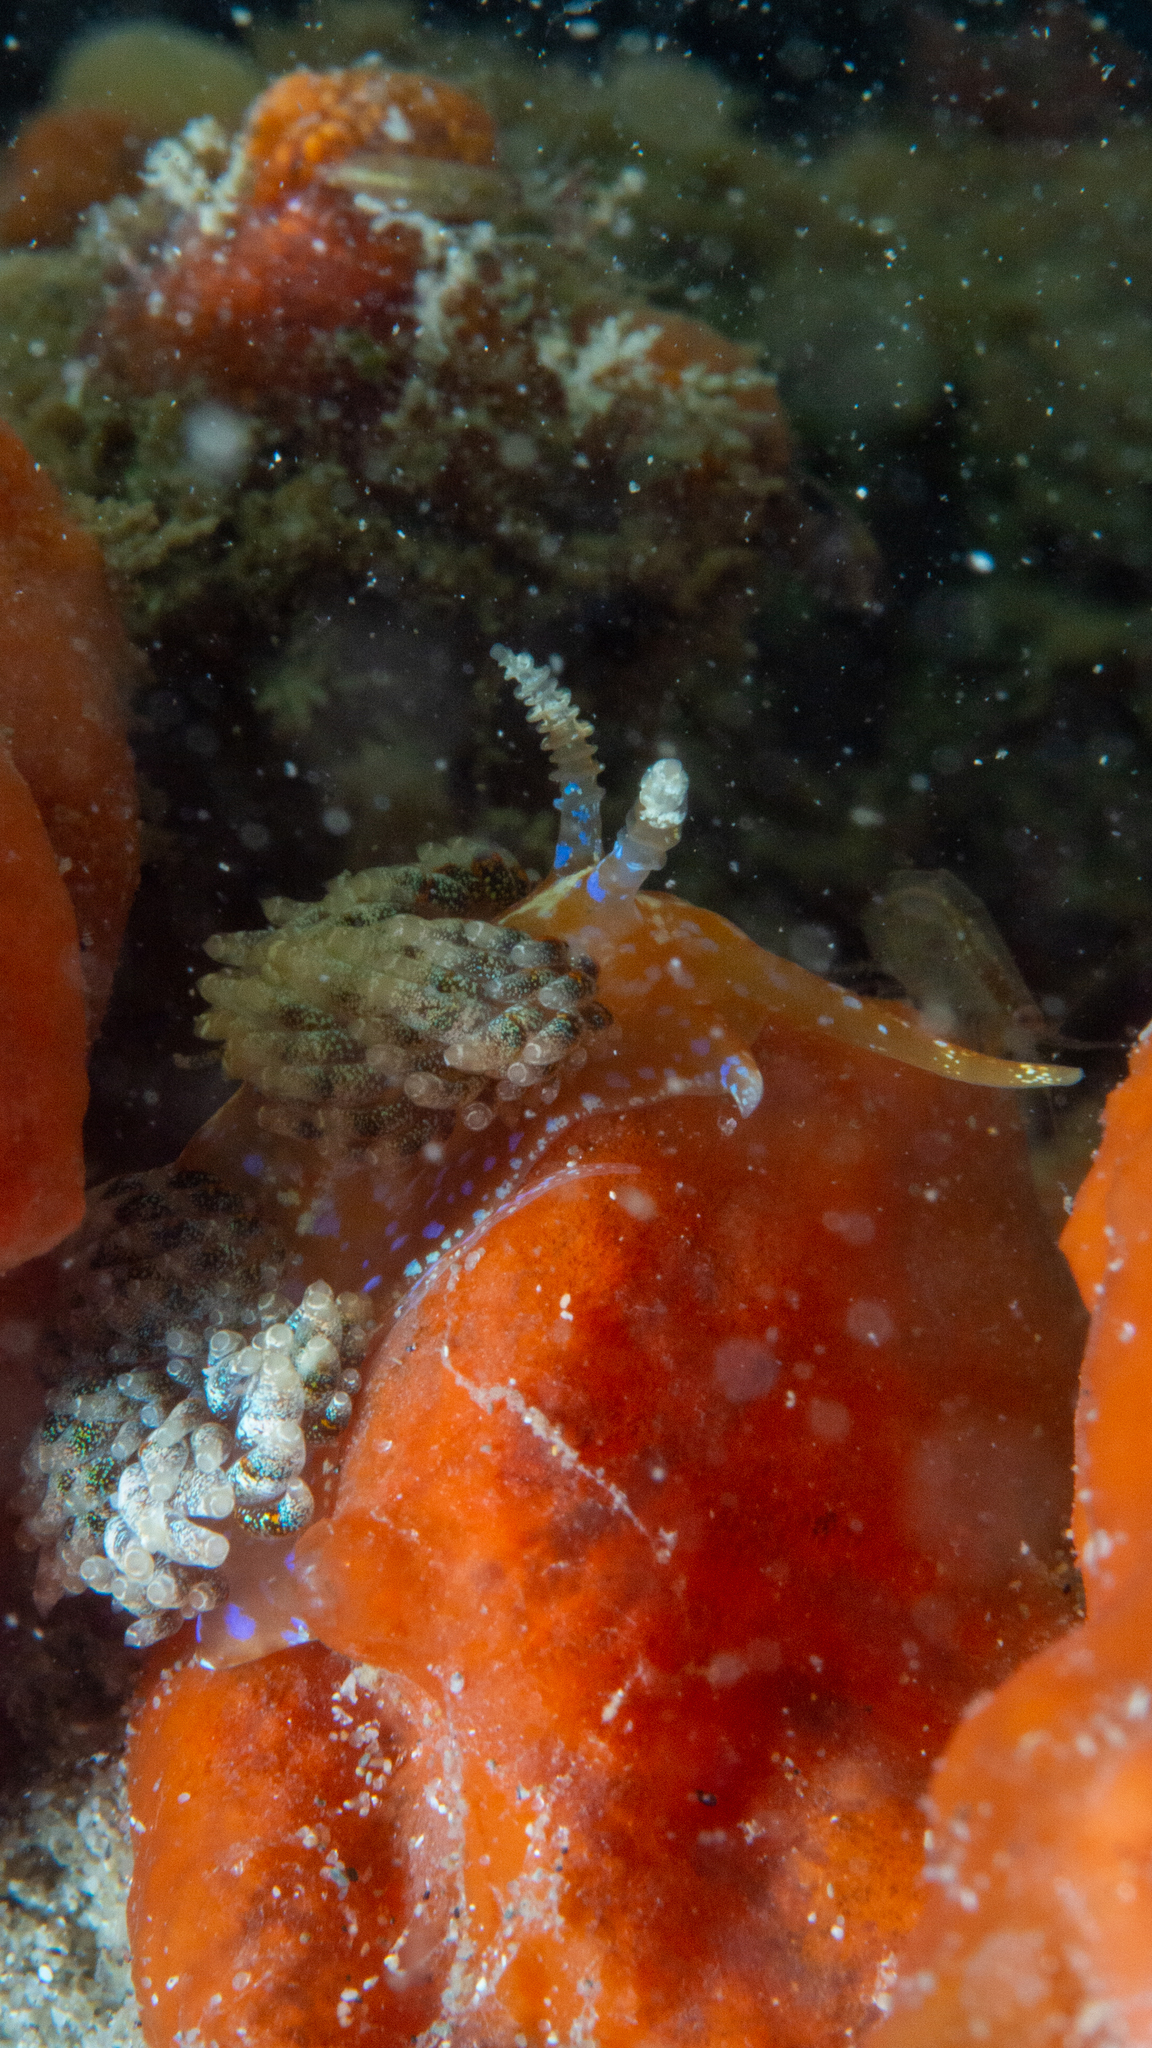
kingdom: Animalia
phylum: Mollusca
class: Gastropoda
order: Nudibranchia
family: Facelinidae
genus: Austraeolis
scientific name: Austraeolis ornata
